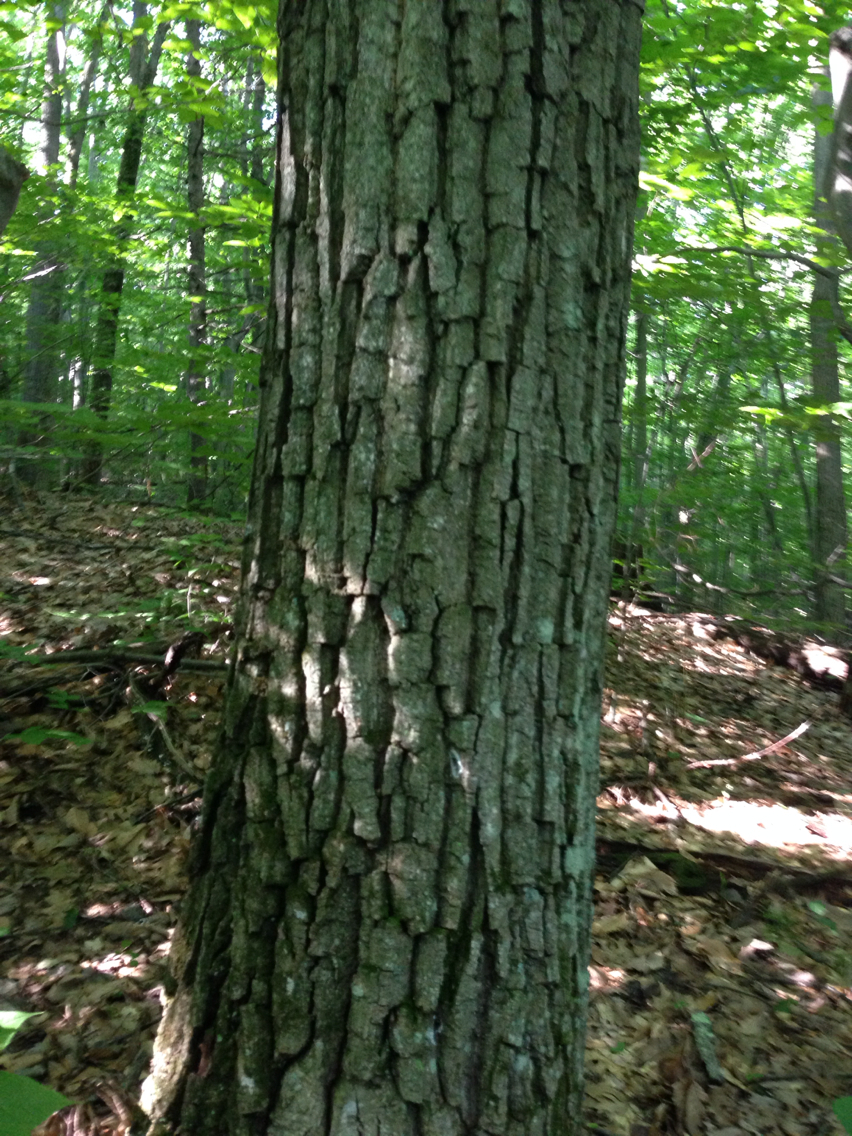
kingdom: Plantae
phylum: Tracheophyta
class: Magnoliopsida
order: Fagales
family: Fagaceae
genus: Quercus
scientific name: Quercus montana
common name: Chestnut oak
